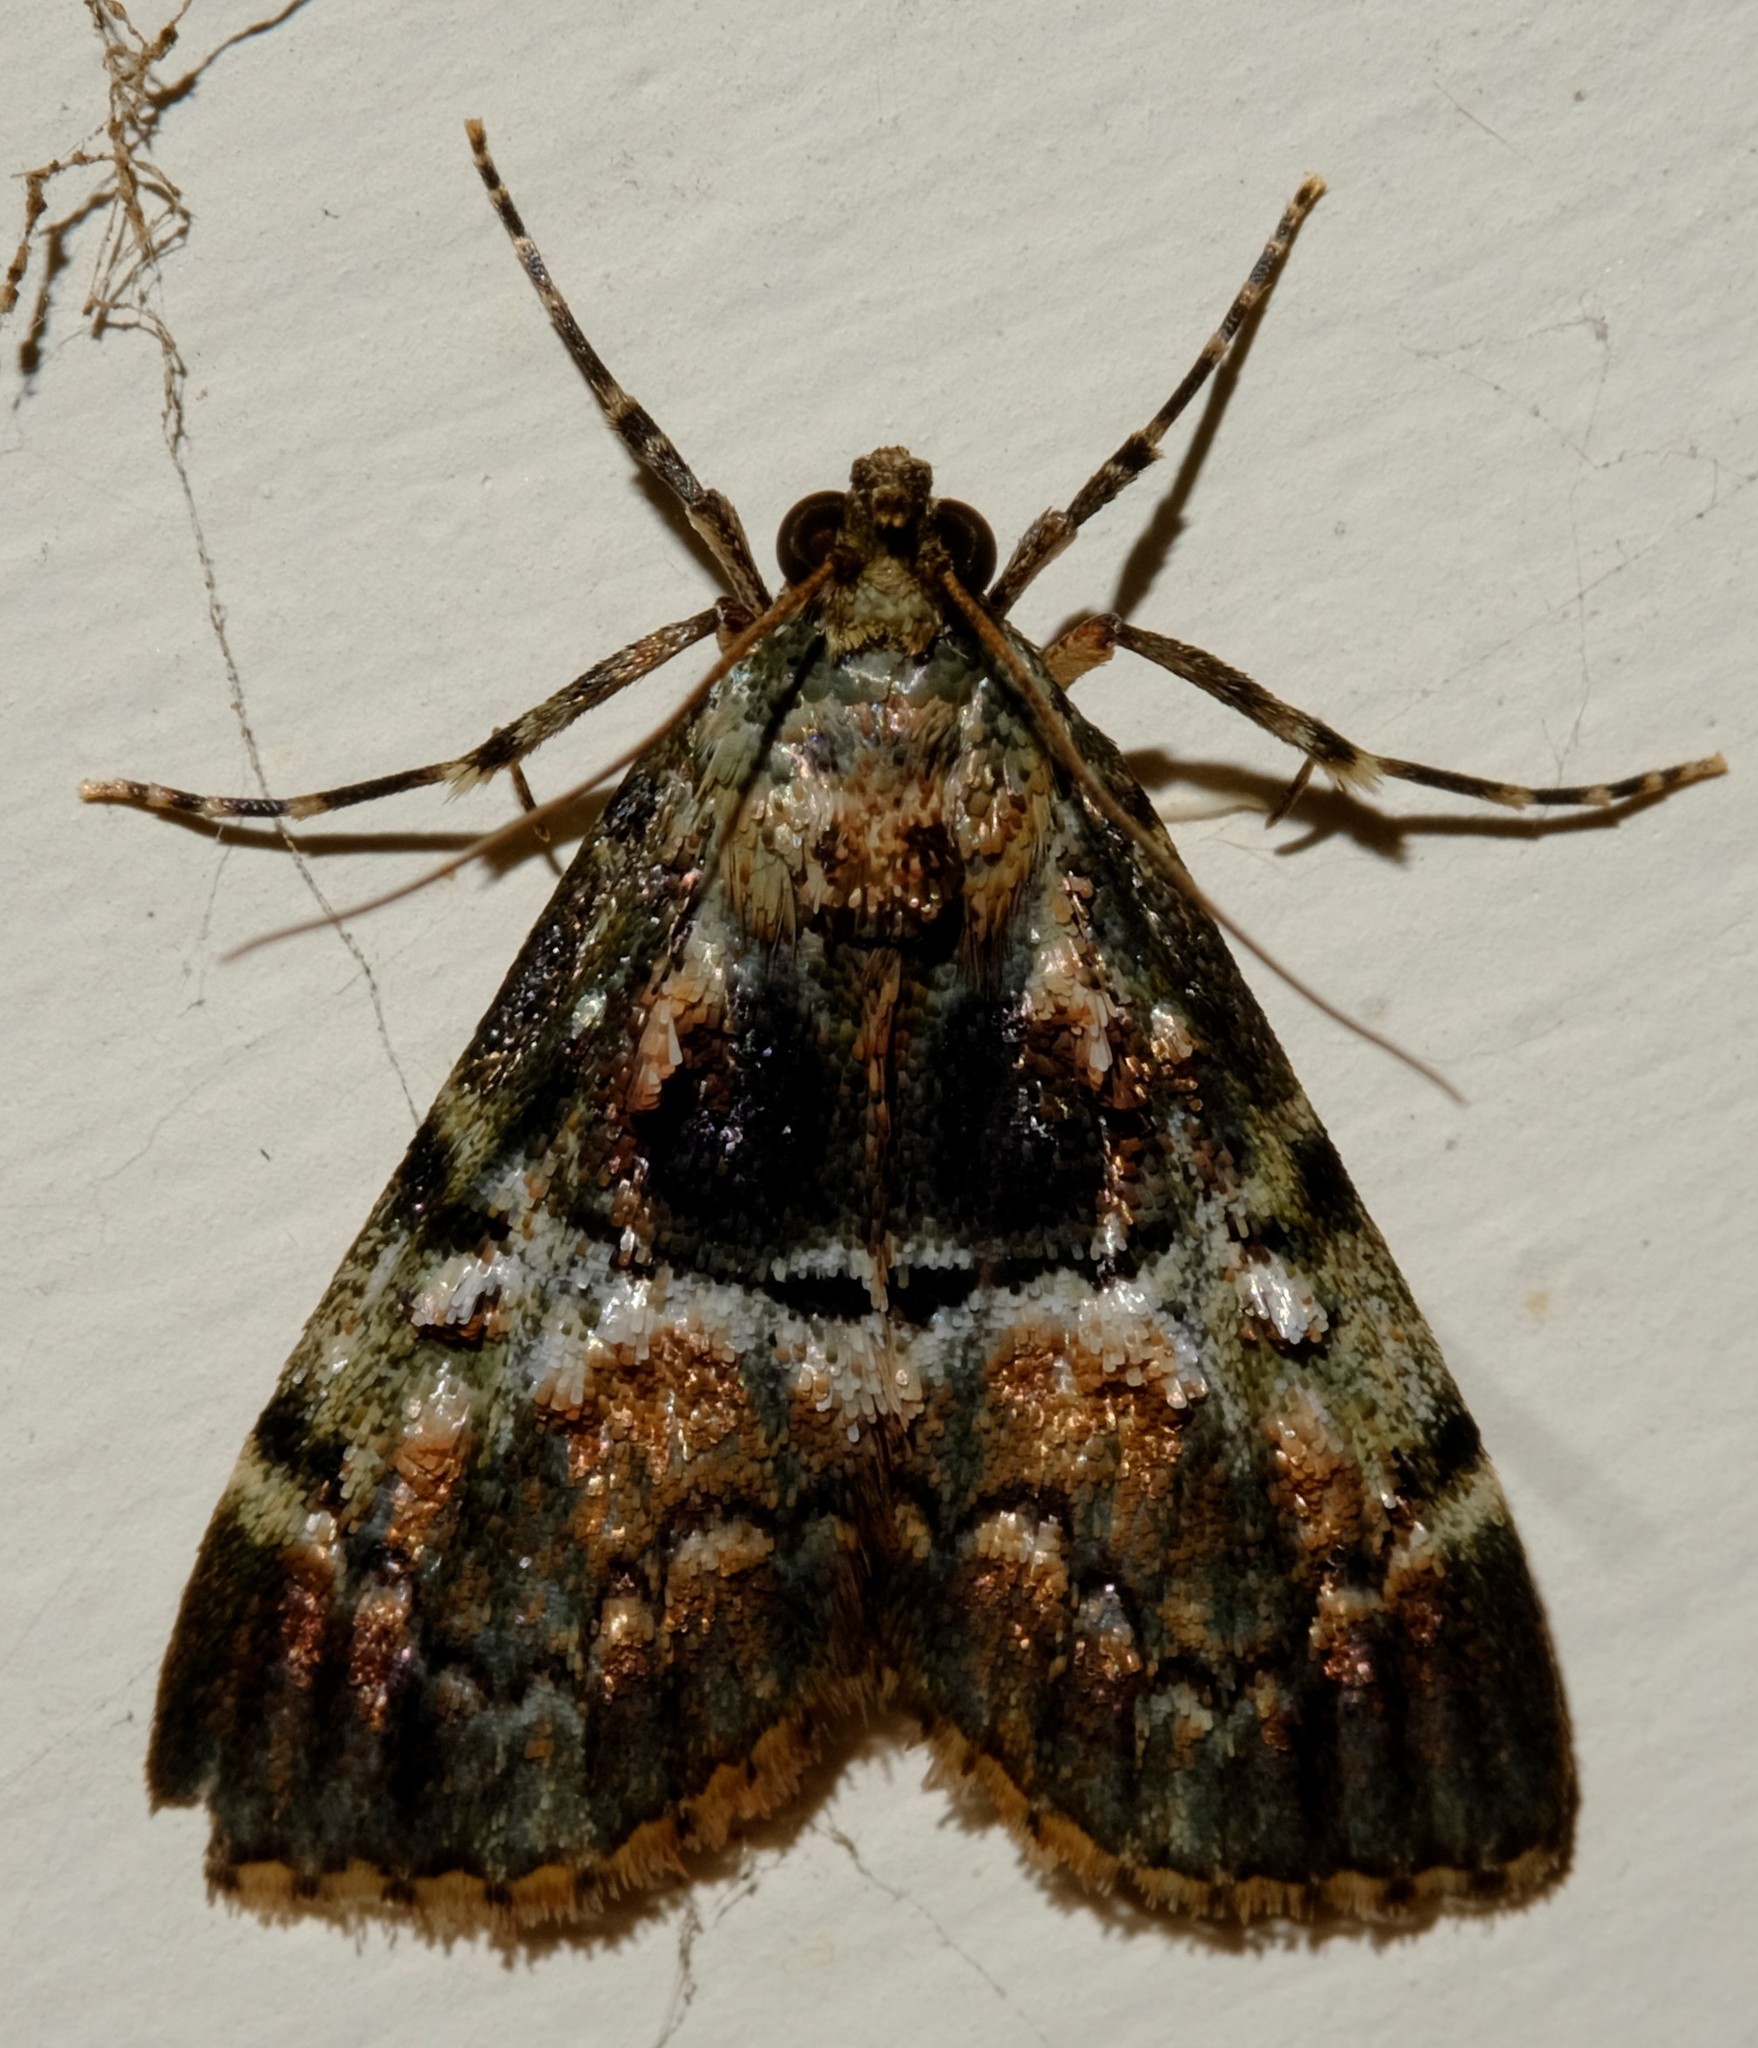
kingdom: Animalia
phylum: Arthropoda
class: Insecta
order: Lepidoptera
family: Pyralidae
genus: Orthaga
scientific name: Orthaga thyrisalis
